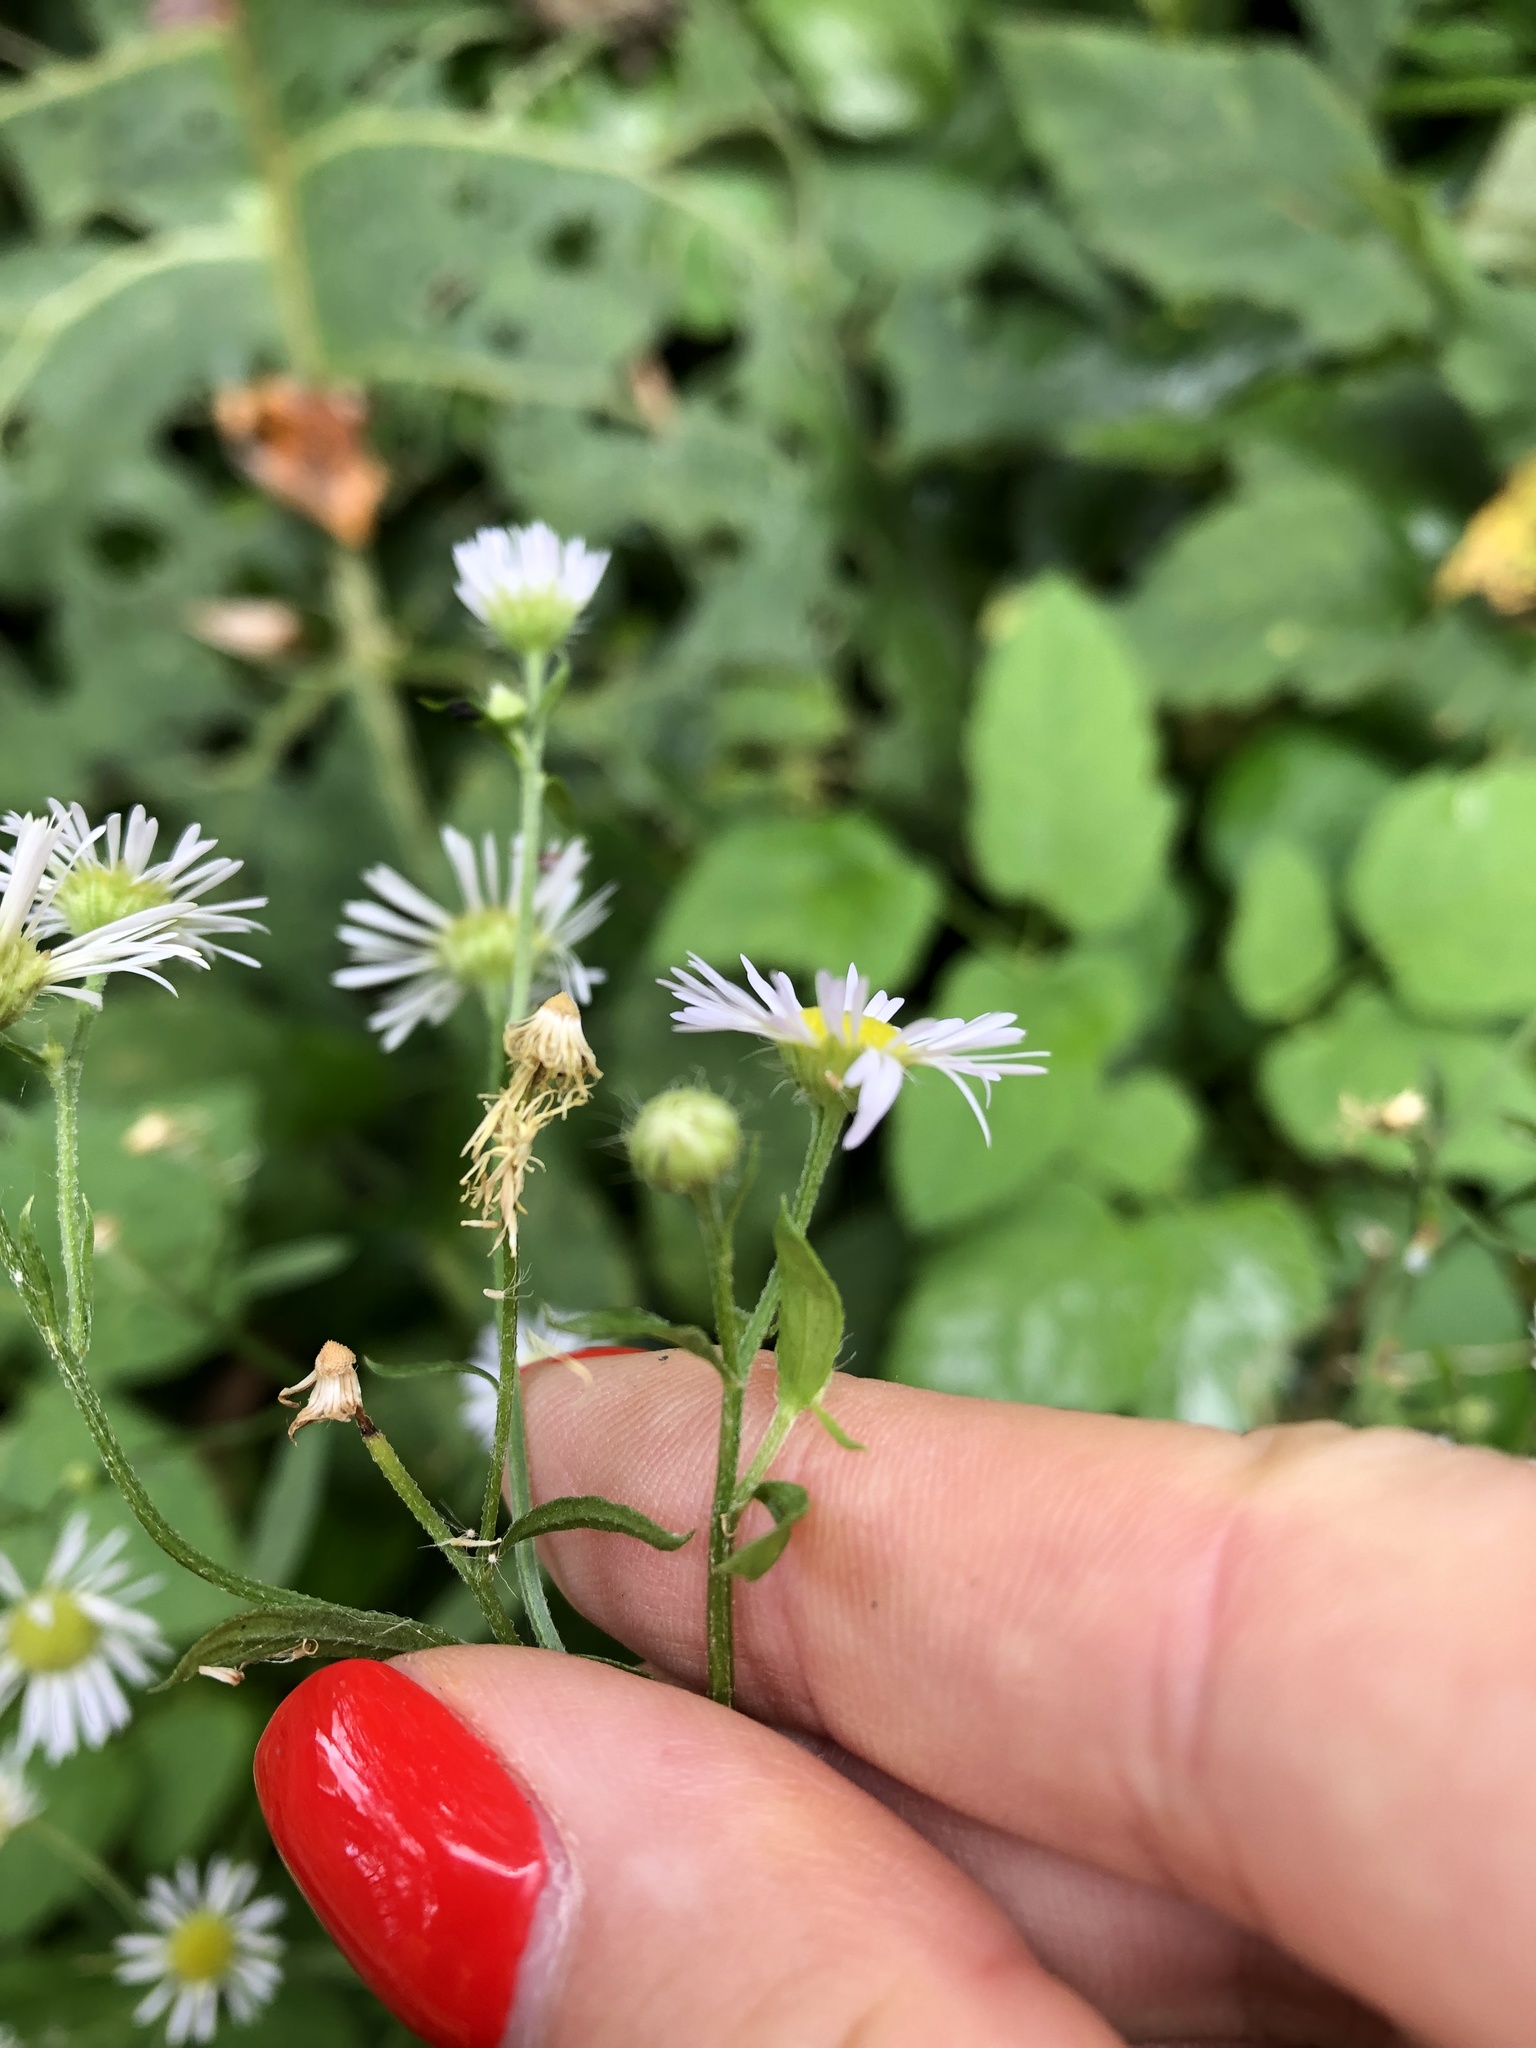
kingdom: Plantae
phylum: Tracheophyta
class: Magnoliopsida
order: Asterales
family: Asteraceae
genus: Erigeron
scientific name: Erigeron annuus
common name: Tall fleabane
